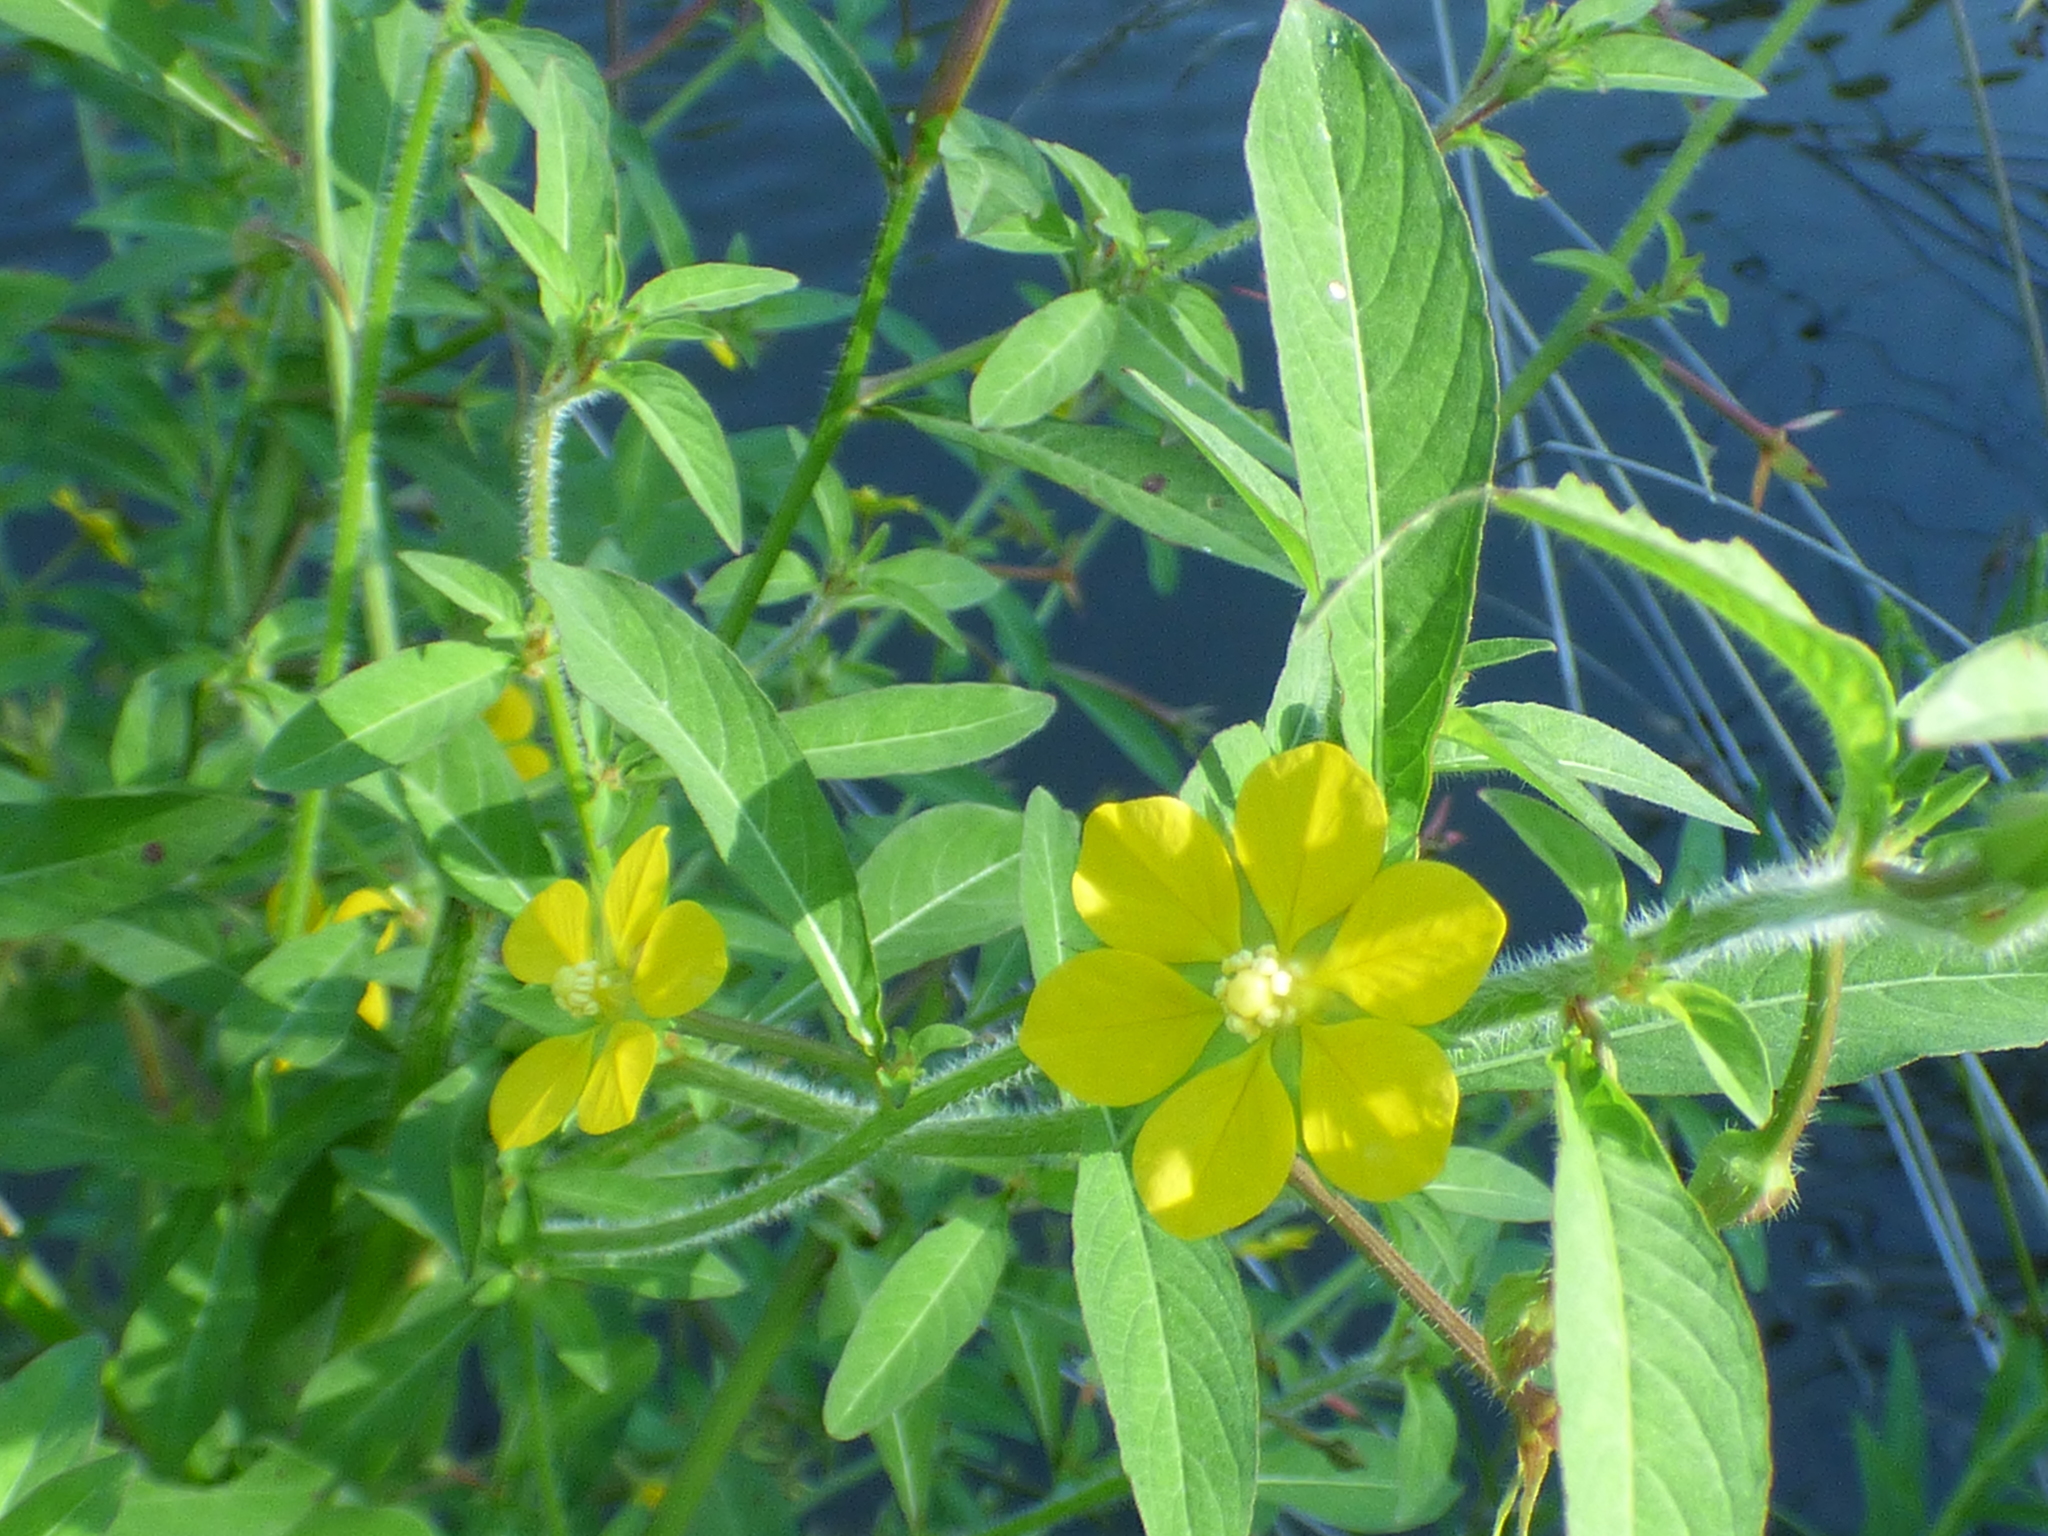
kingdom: Plantae
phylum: Tracheophyta
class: Magnoliopsida
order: Myrtales
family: Onagraceae
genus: Ludwigia
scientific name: Ludwigia leptocarpa
